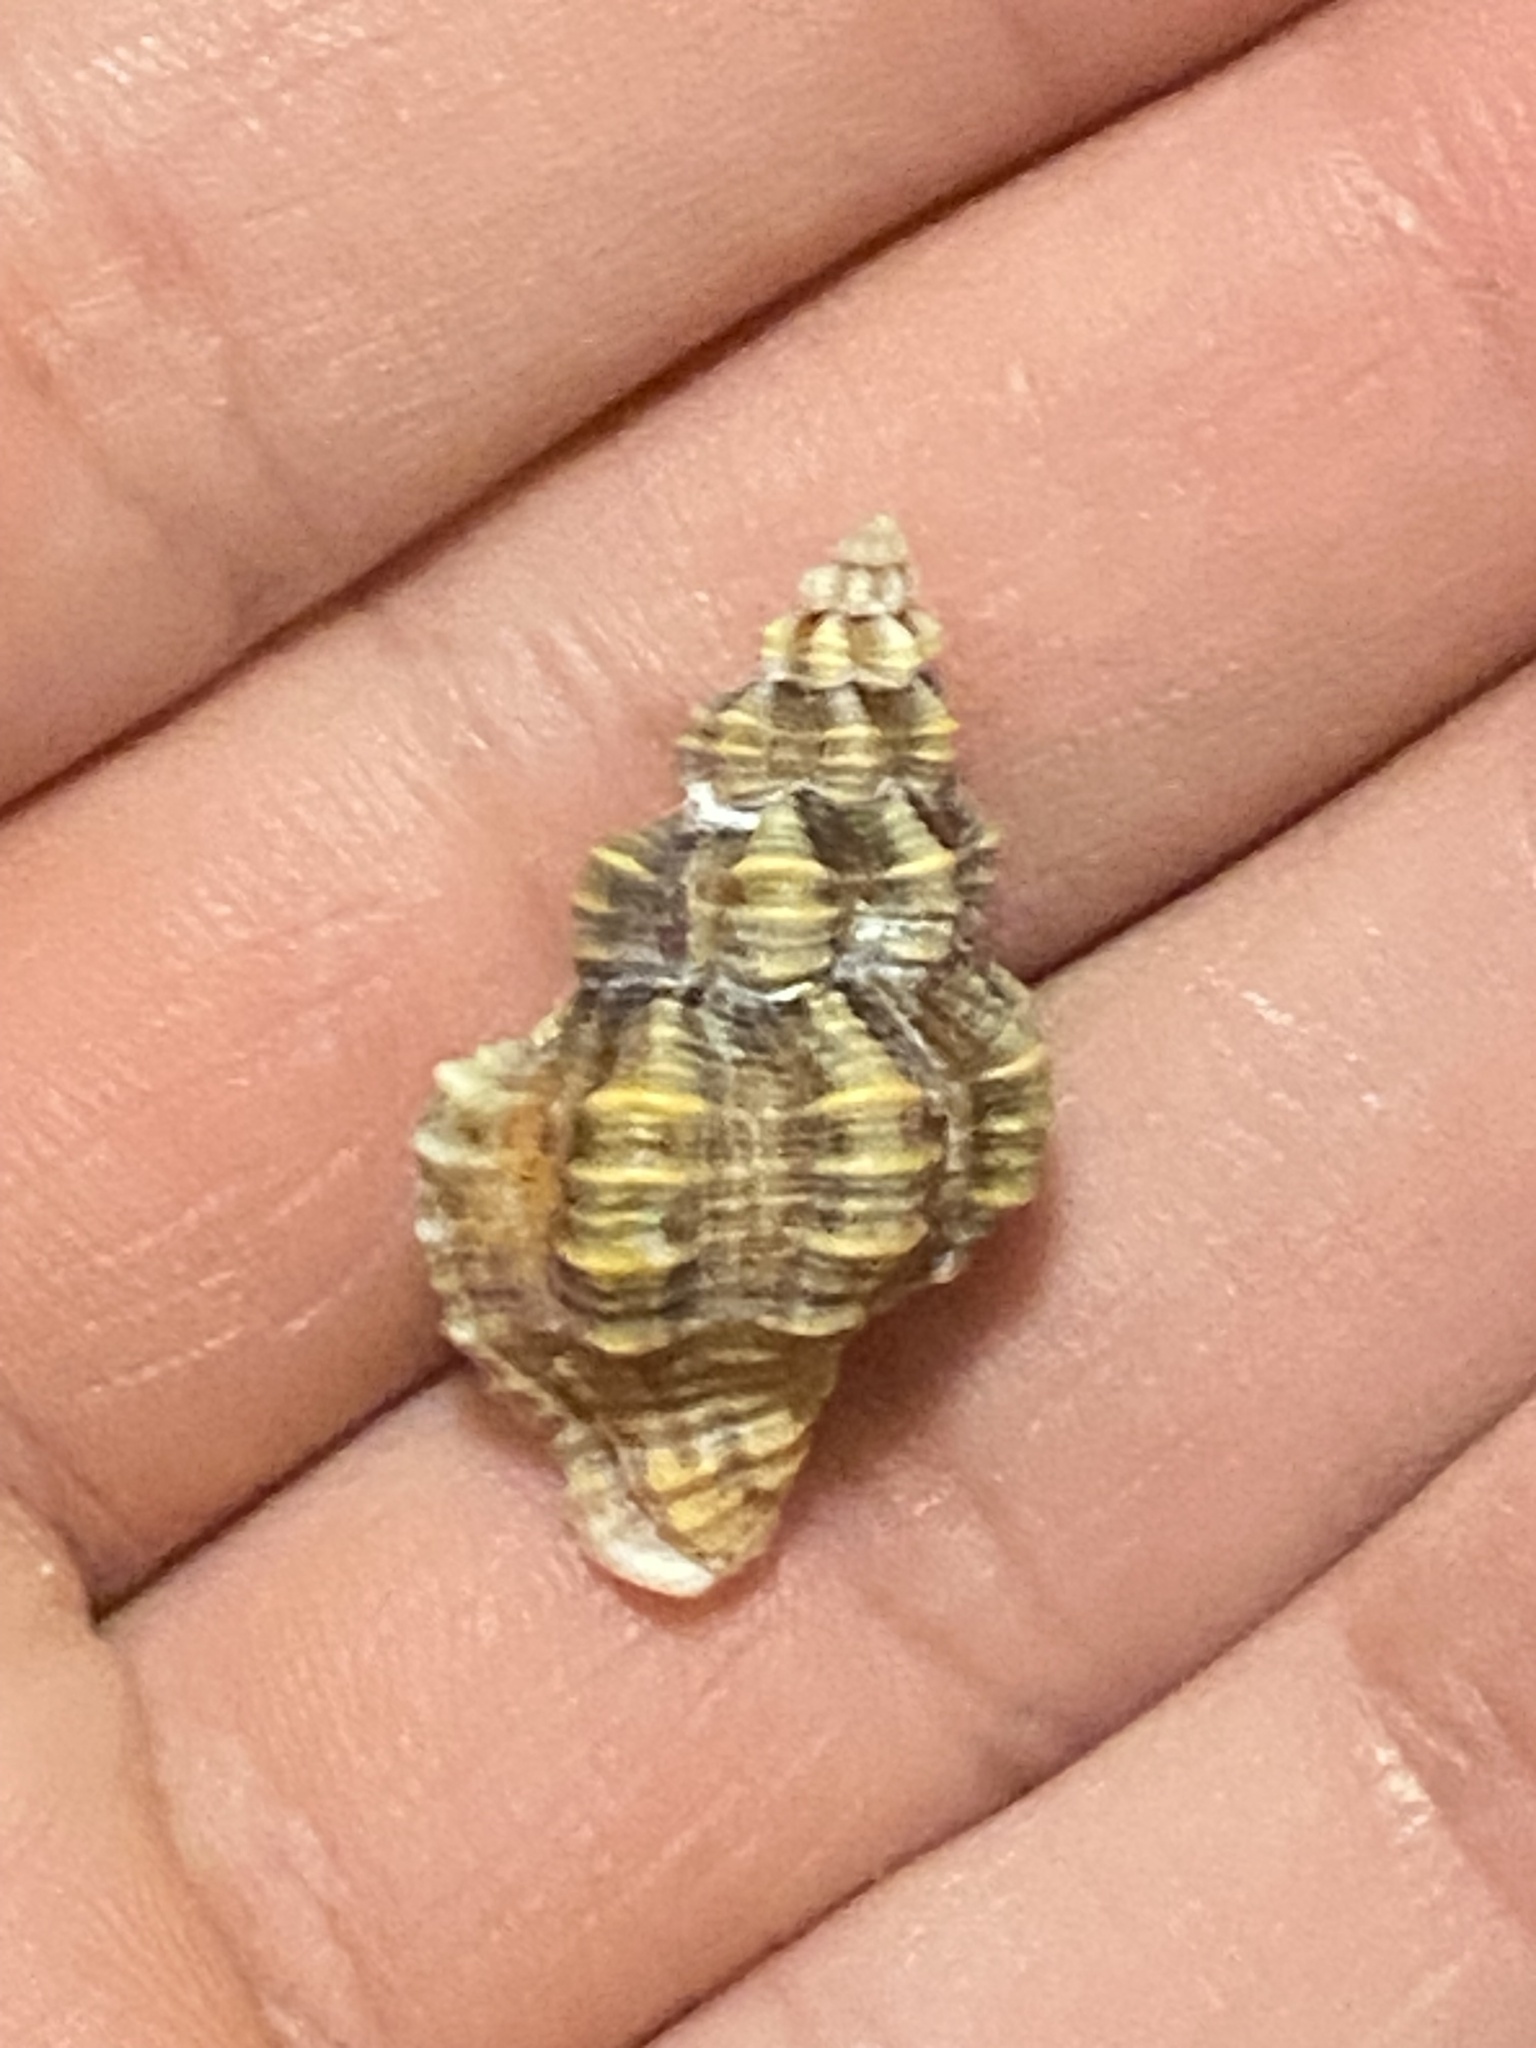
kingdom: Animalia
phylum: Mollusca
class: Gastropoda
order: Neogastropoda
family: Pisaniidae
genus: Hesperisternia
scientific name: Hesperisternia multangulus
